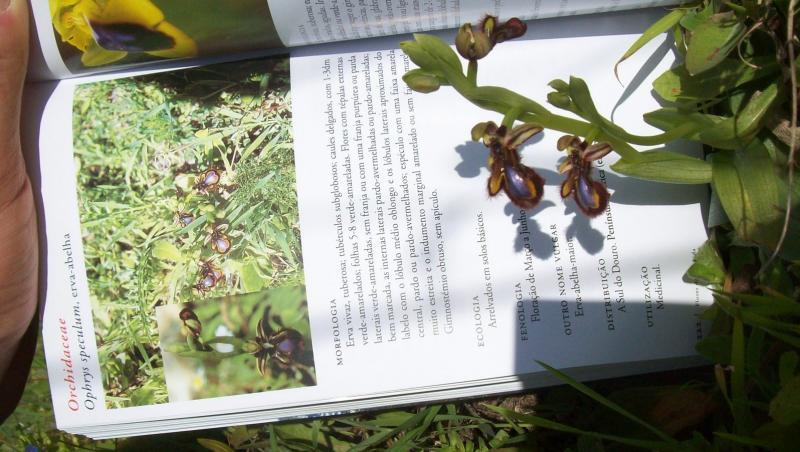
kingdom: Plantae
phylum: Tracheophyta
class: Liliopsida
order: Asparagales
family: Orchidaceae
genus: Ophrys
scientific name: Ophrys speculum
